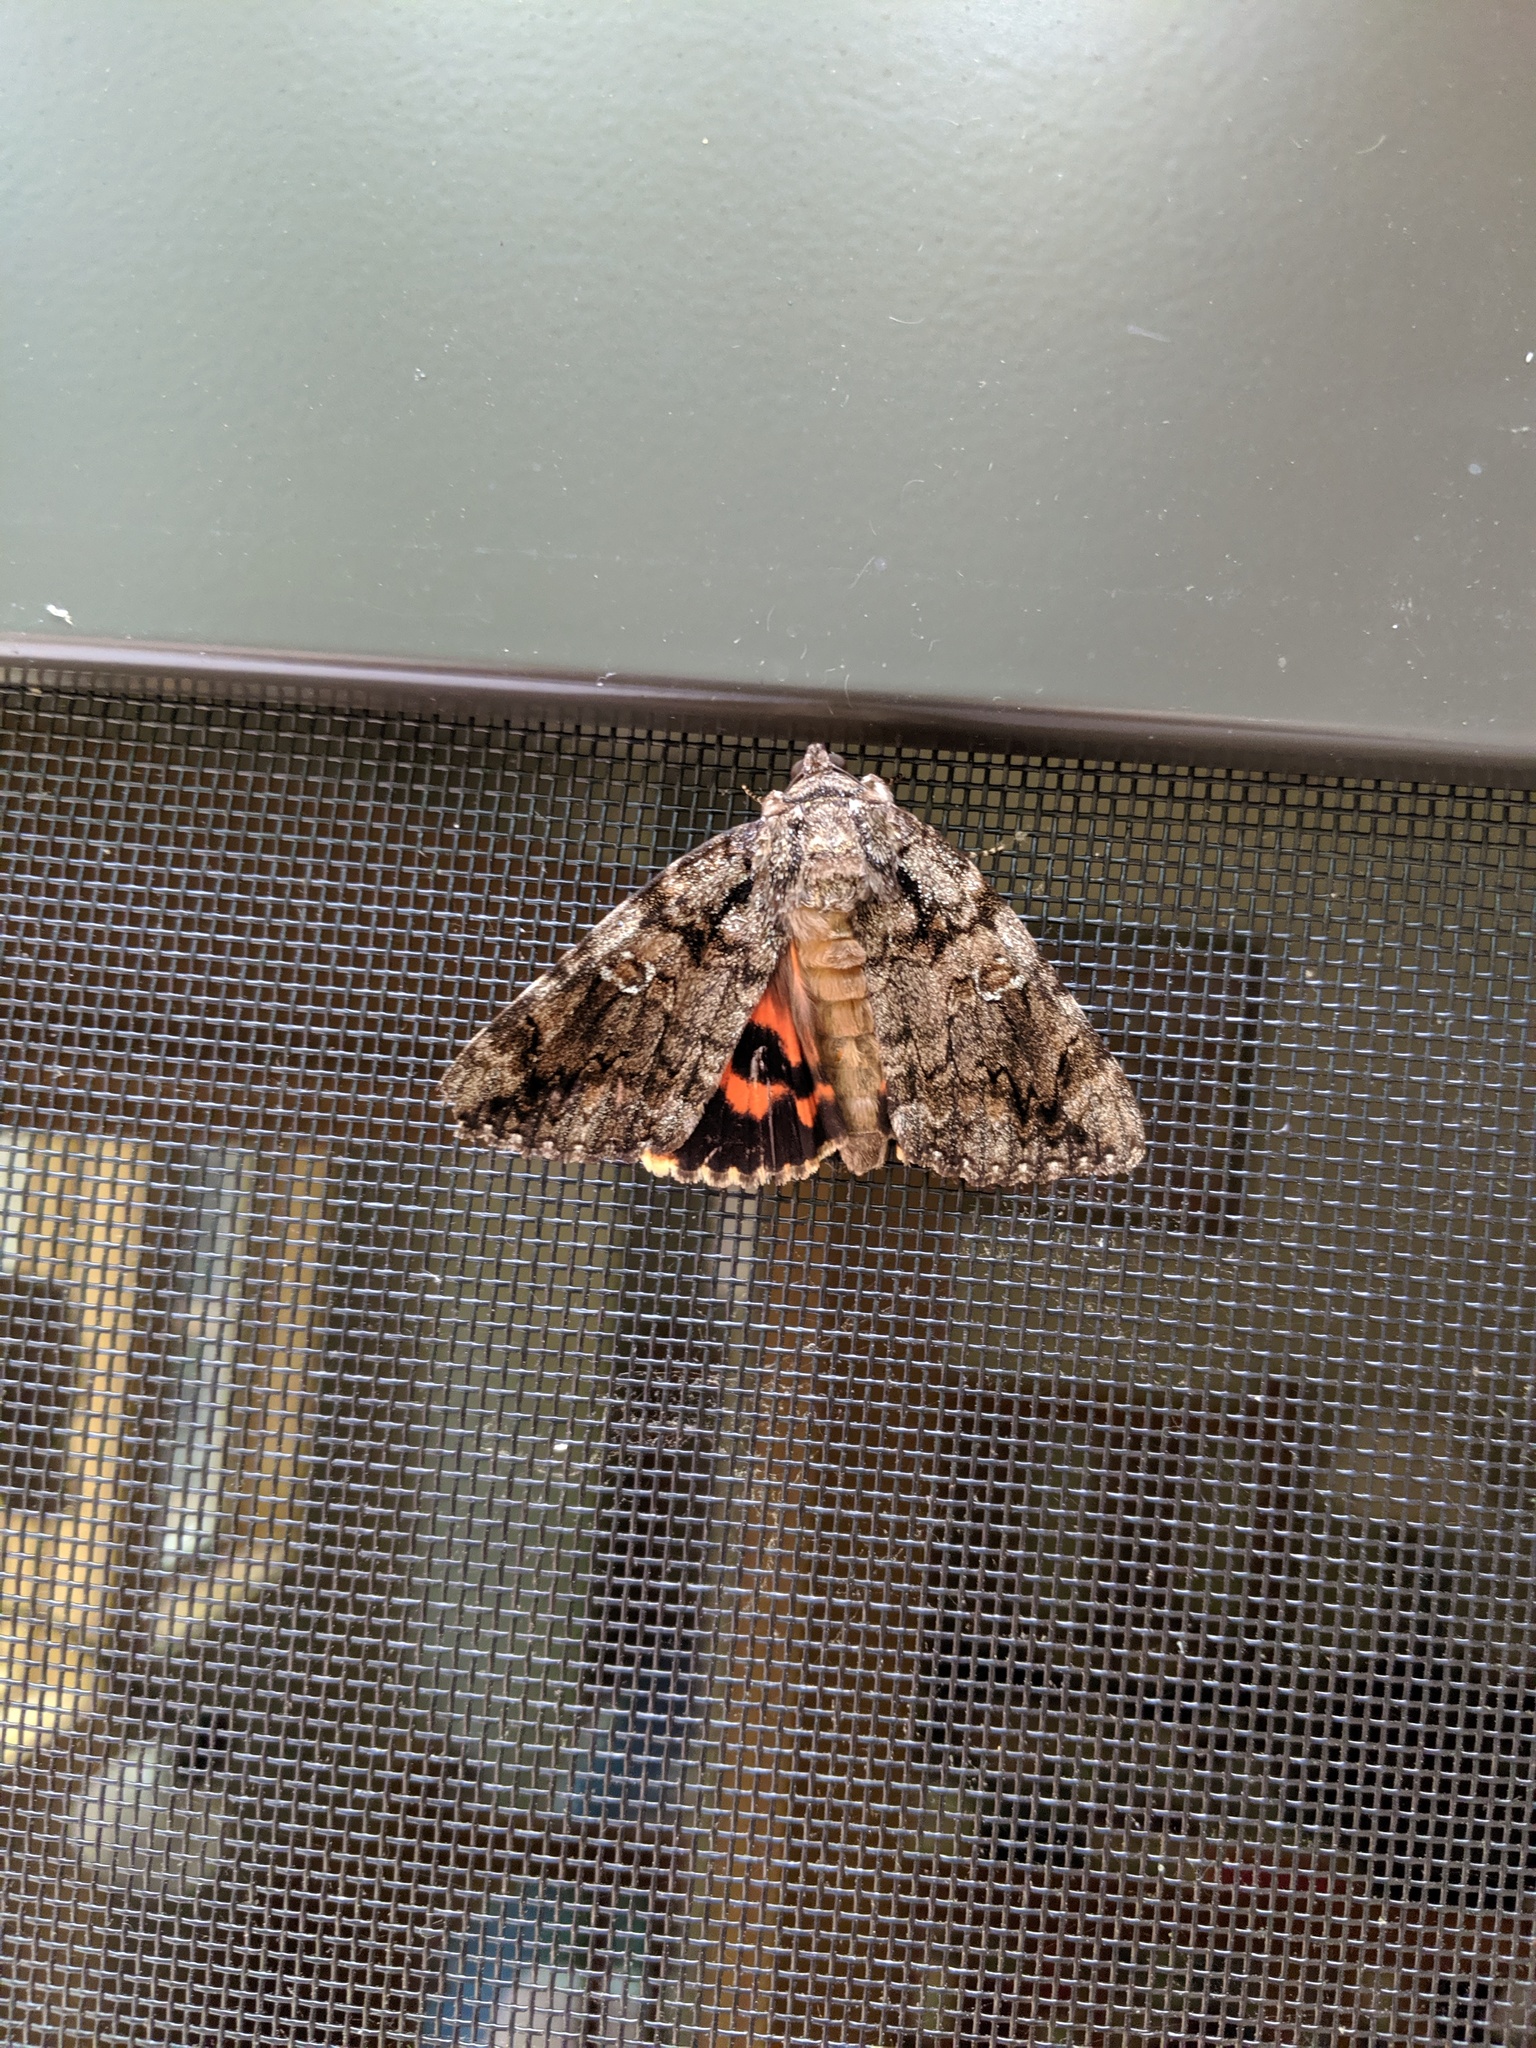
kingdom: Animalia
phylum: Arthropoda
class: Insecta
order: Lepidoptera
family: Erebidae
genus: Catocala
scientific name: Catocala ilia
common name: Ilia underwing
